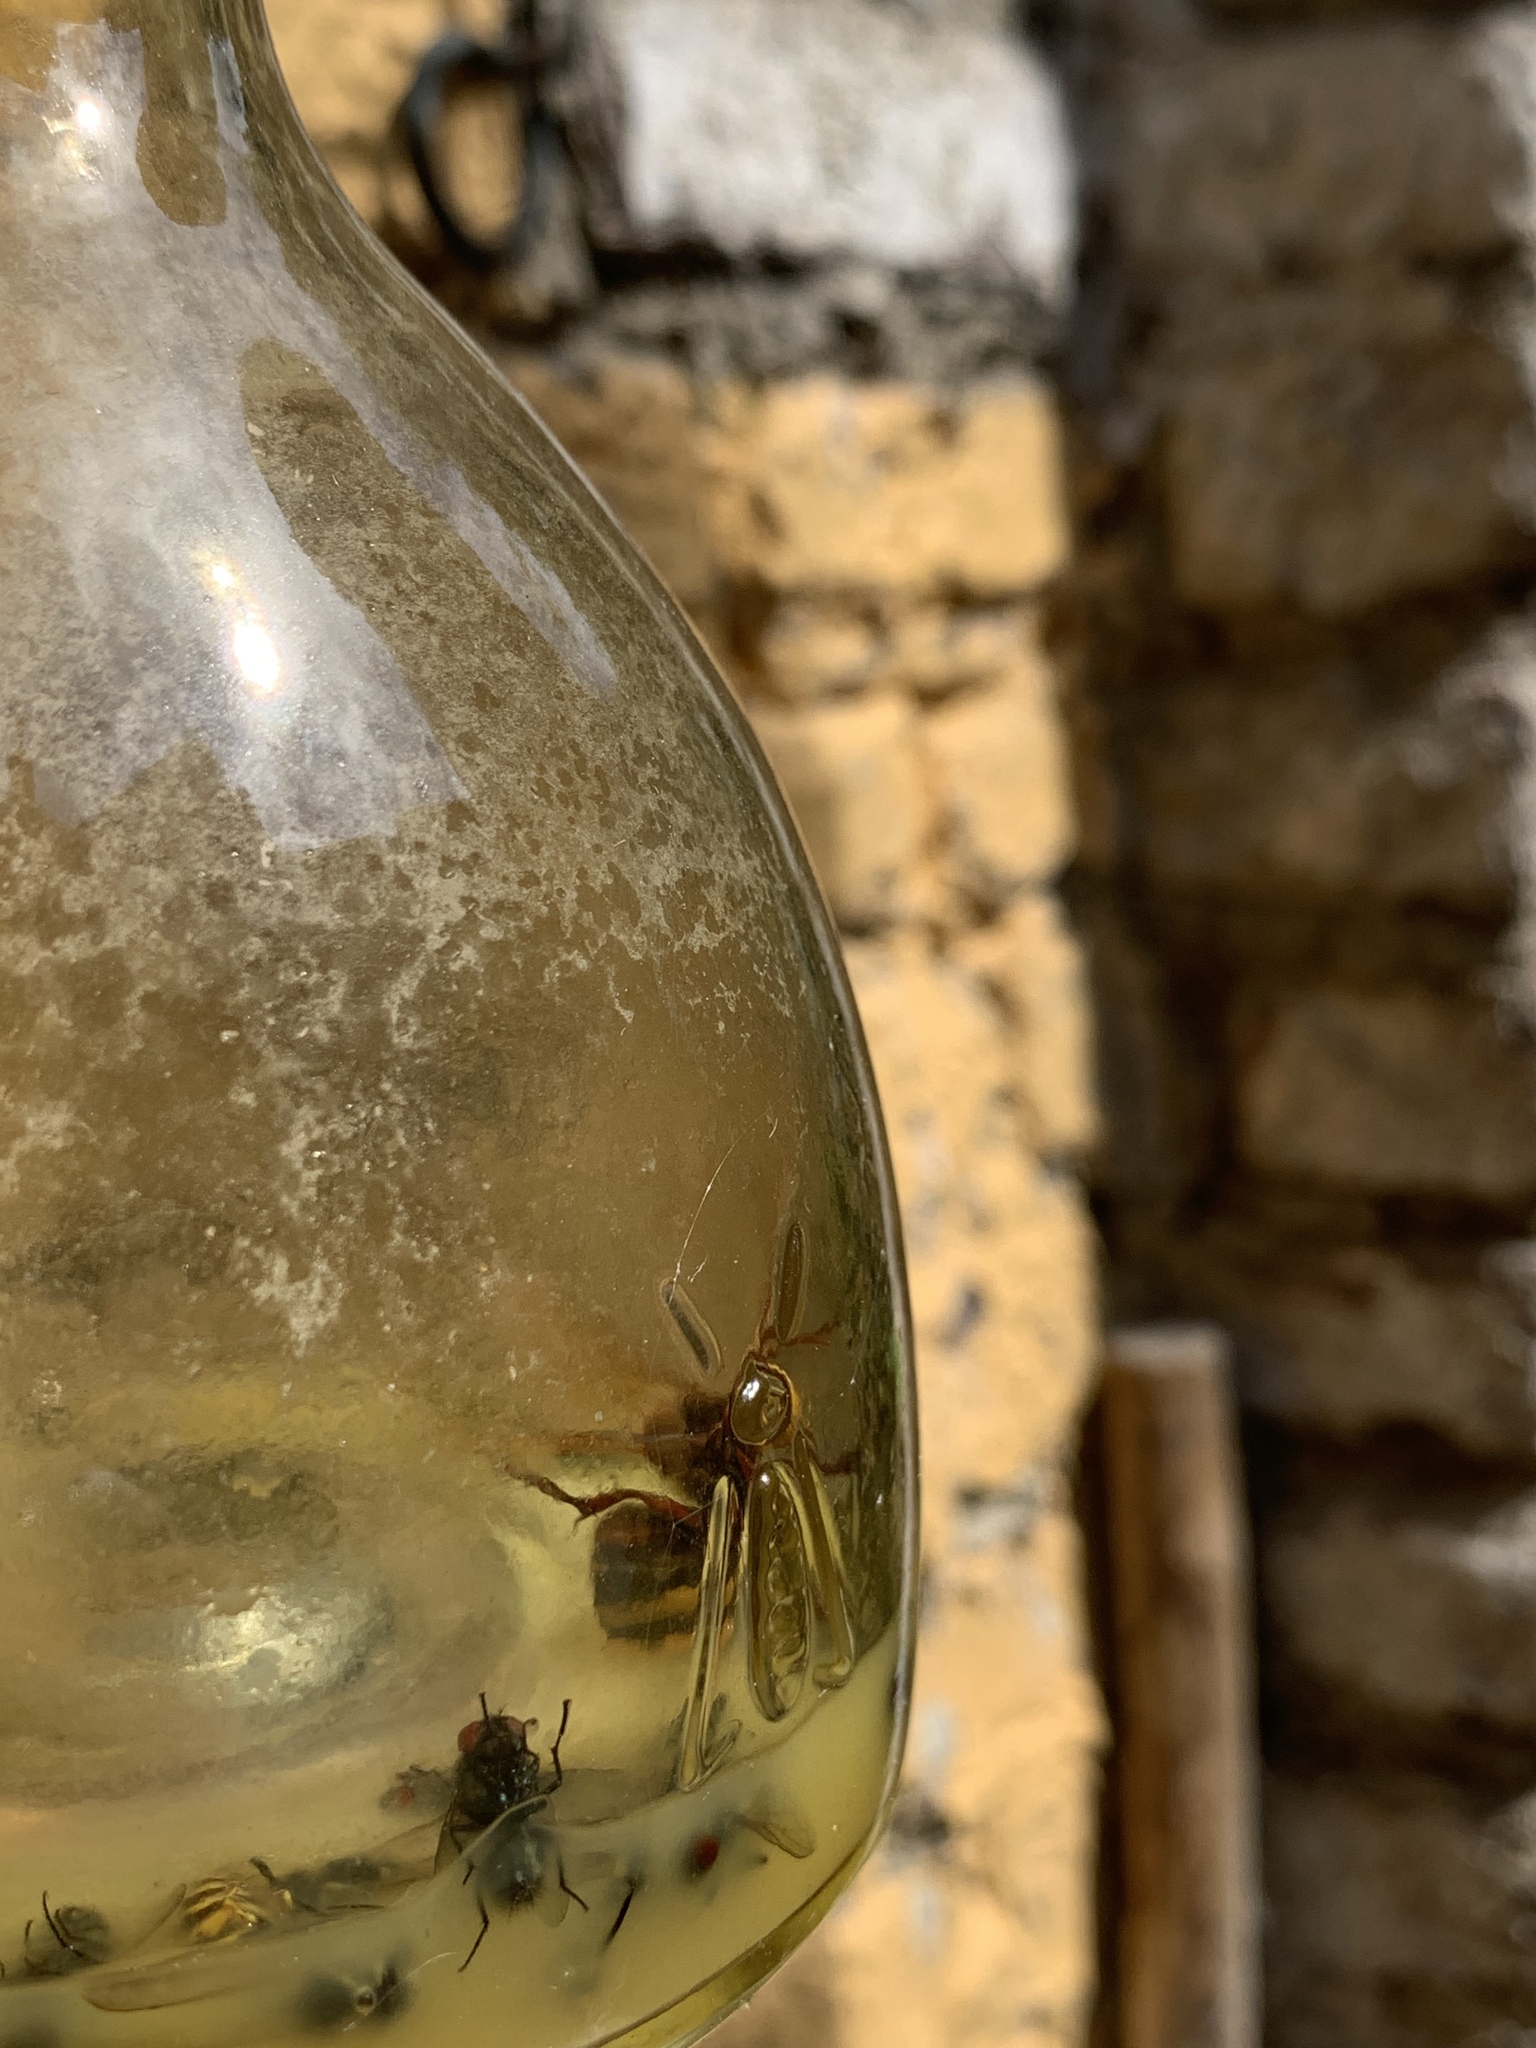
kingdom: Animalia
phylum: Arthropoda
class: Insecta
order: Hymenoptera
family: Vespidae
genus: Vespa
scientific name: Vespa crabro
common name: Hornet
